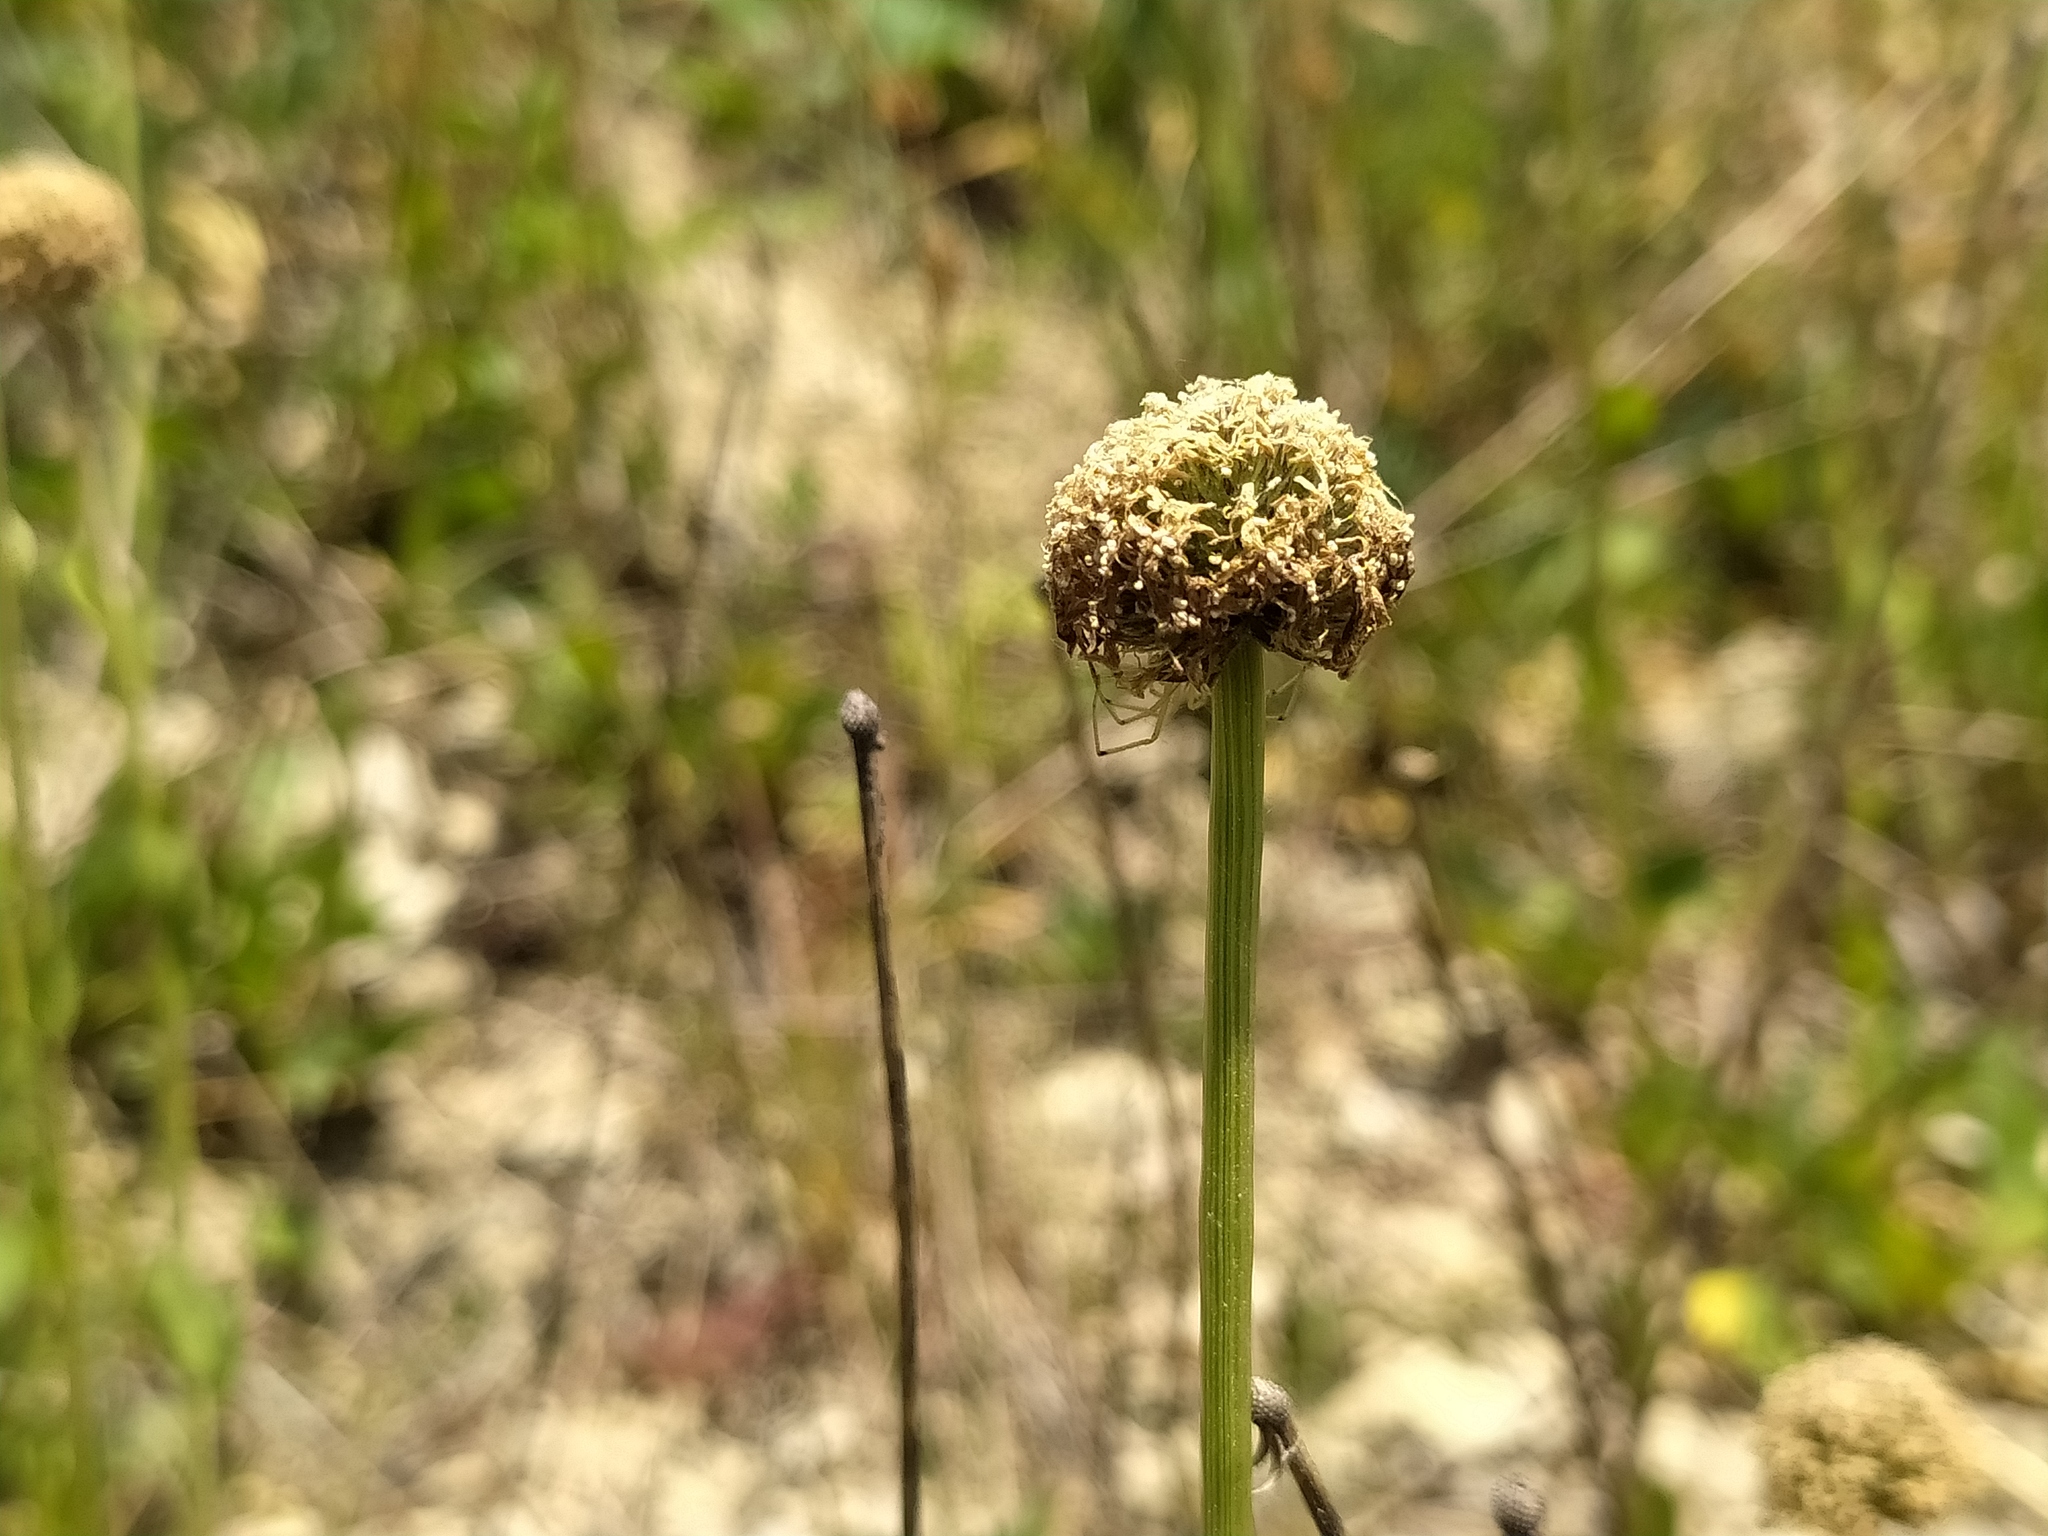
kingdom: Plantae
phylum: Tracheophyta
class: Magnoliopsida
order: Lamiales
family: Plantaginaceae
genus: Globularia
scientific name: Globularia bisnagarica
